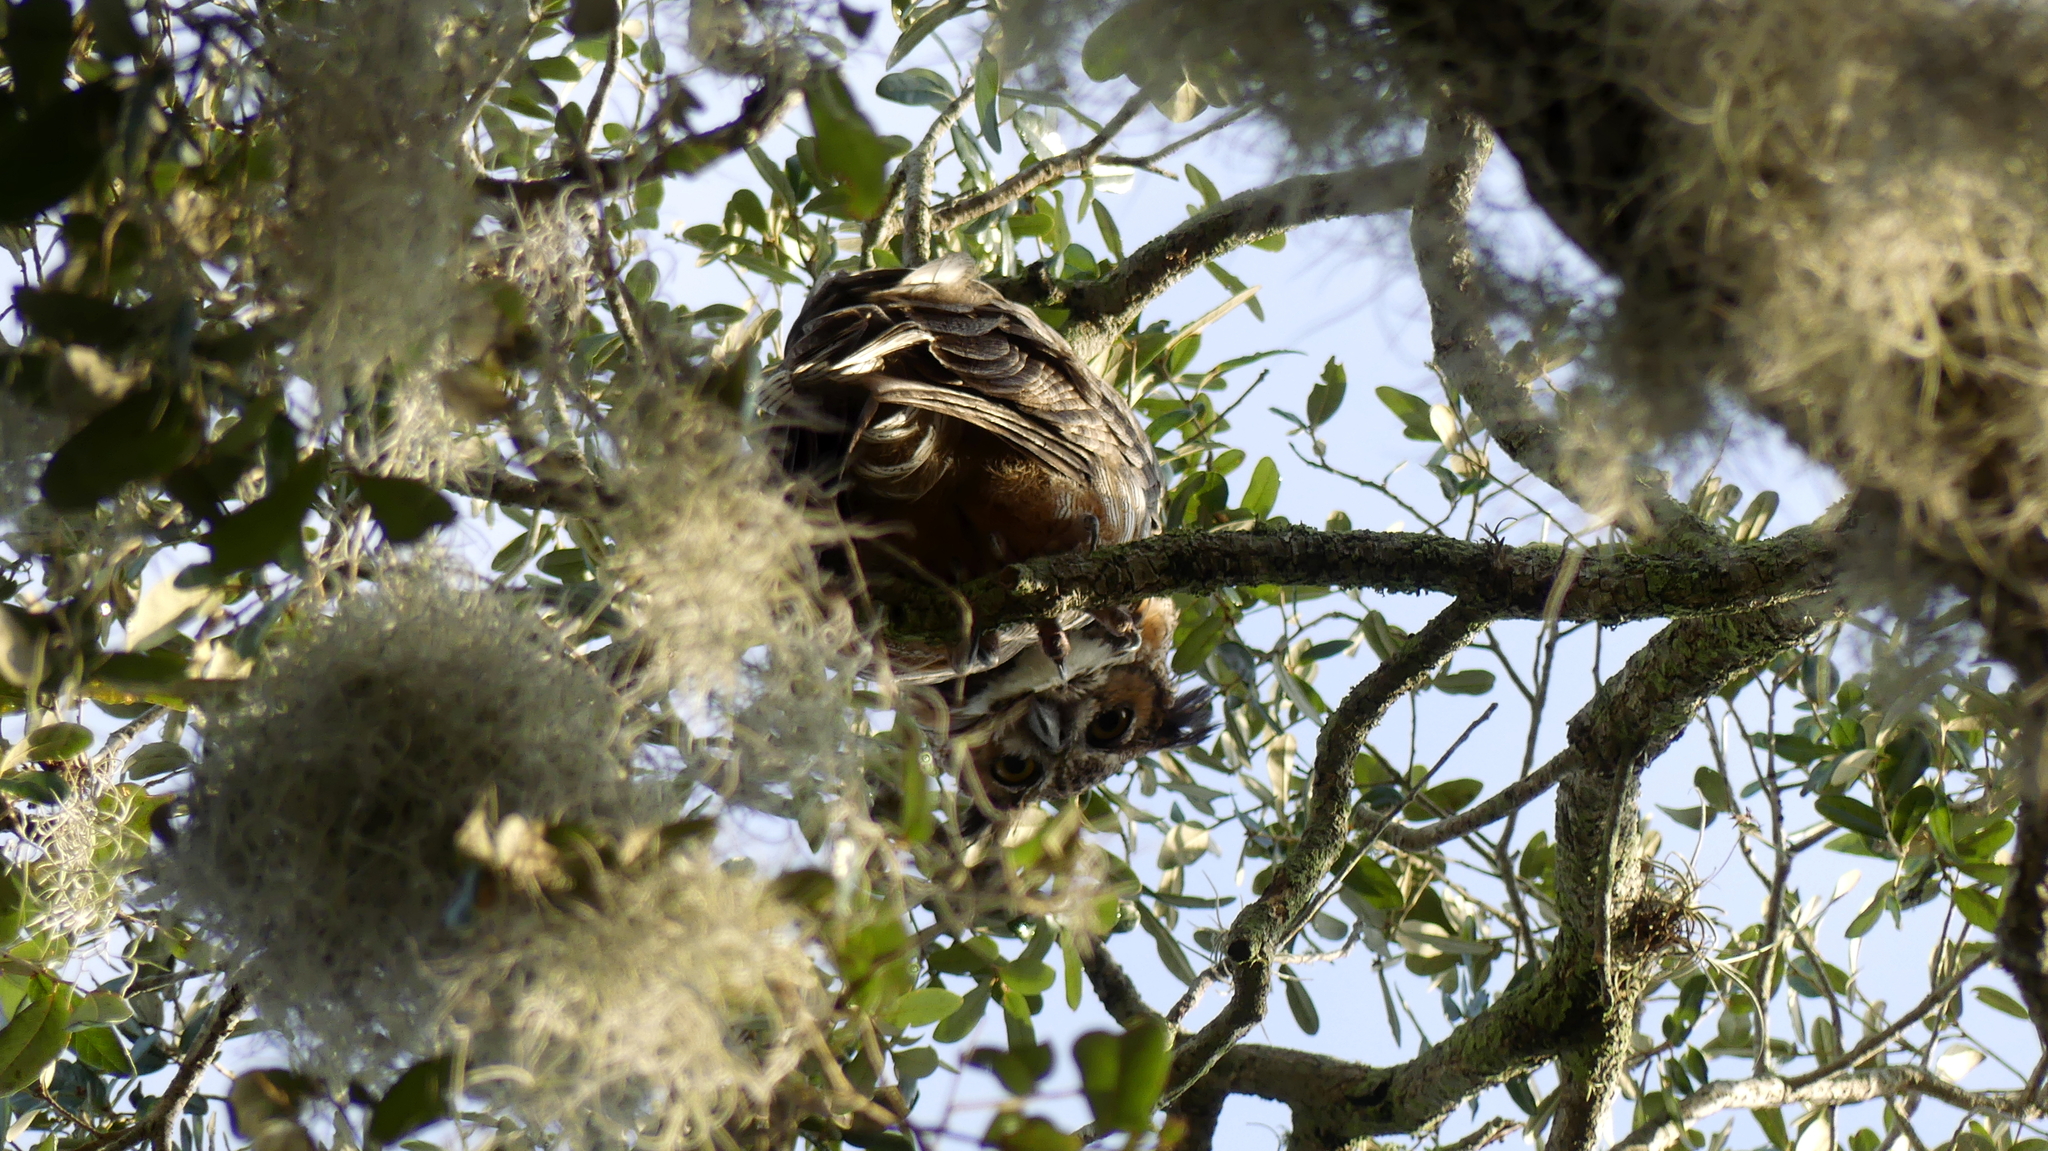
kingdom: Animalia
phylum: Chordata
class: Aves
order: Strigiformes
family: Strigidae
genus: Bubo
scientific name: Bubo virginianus
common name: Great horned owl
